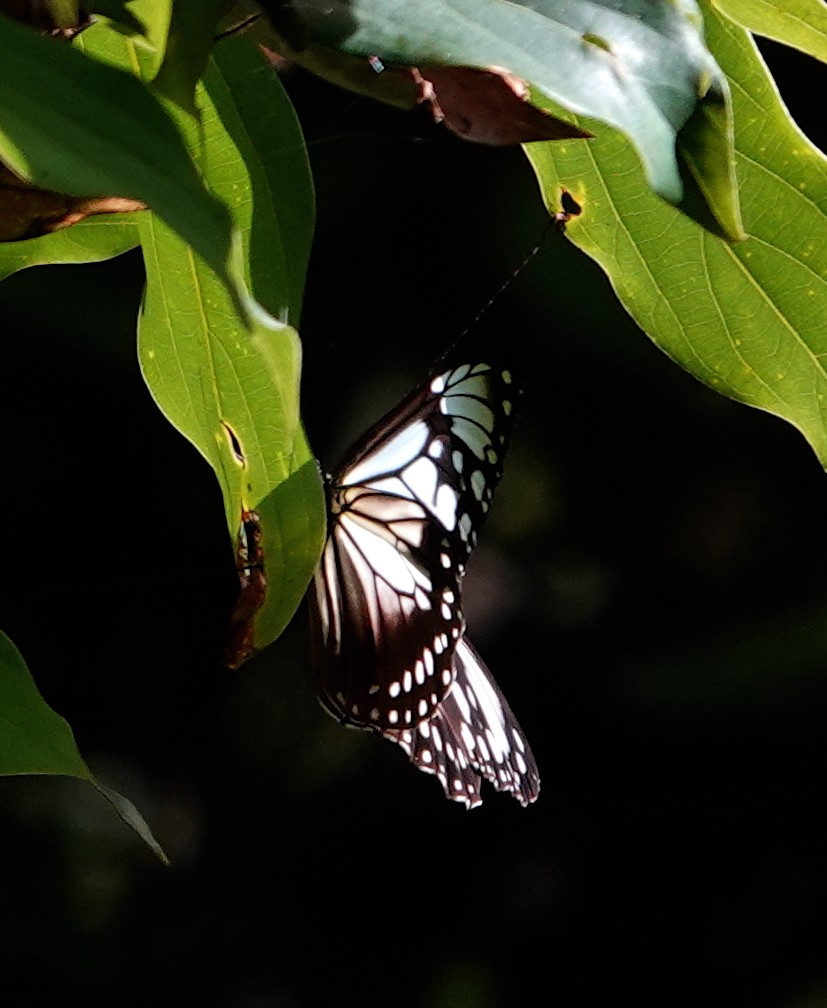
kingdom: Animalia
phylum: Arthropoda
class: Insecta
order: Lepidoptera
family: Nymphalidae
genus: Parantica
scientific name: Parantica albata
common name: Zinken's tiger
